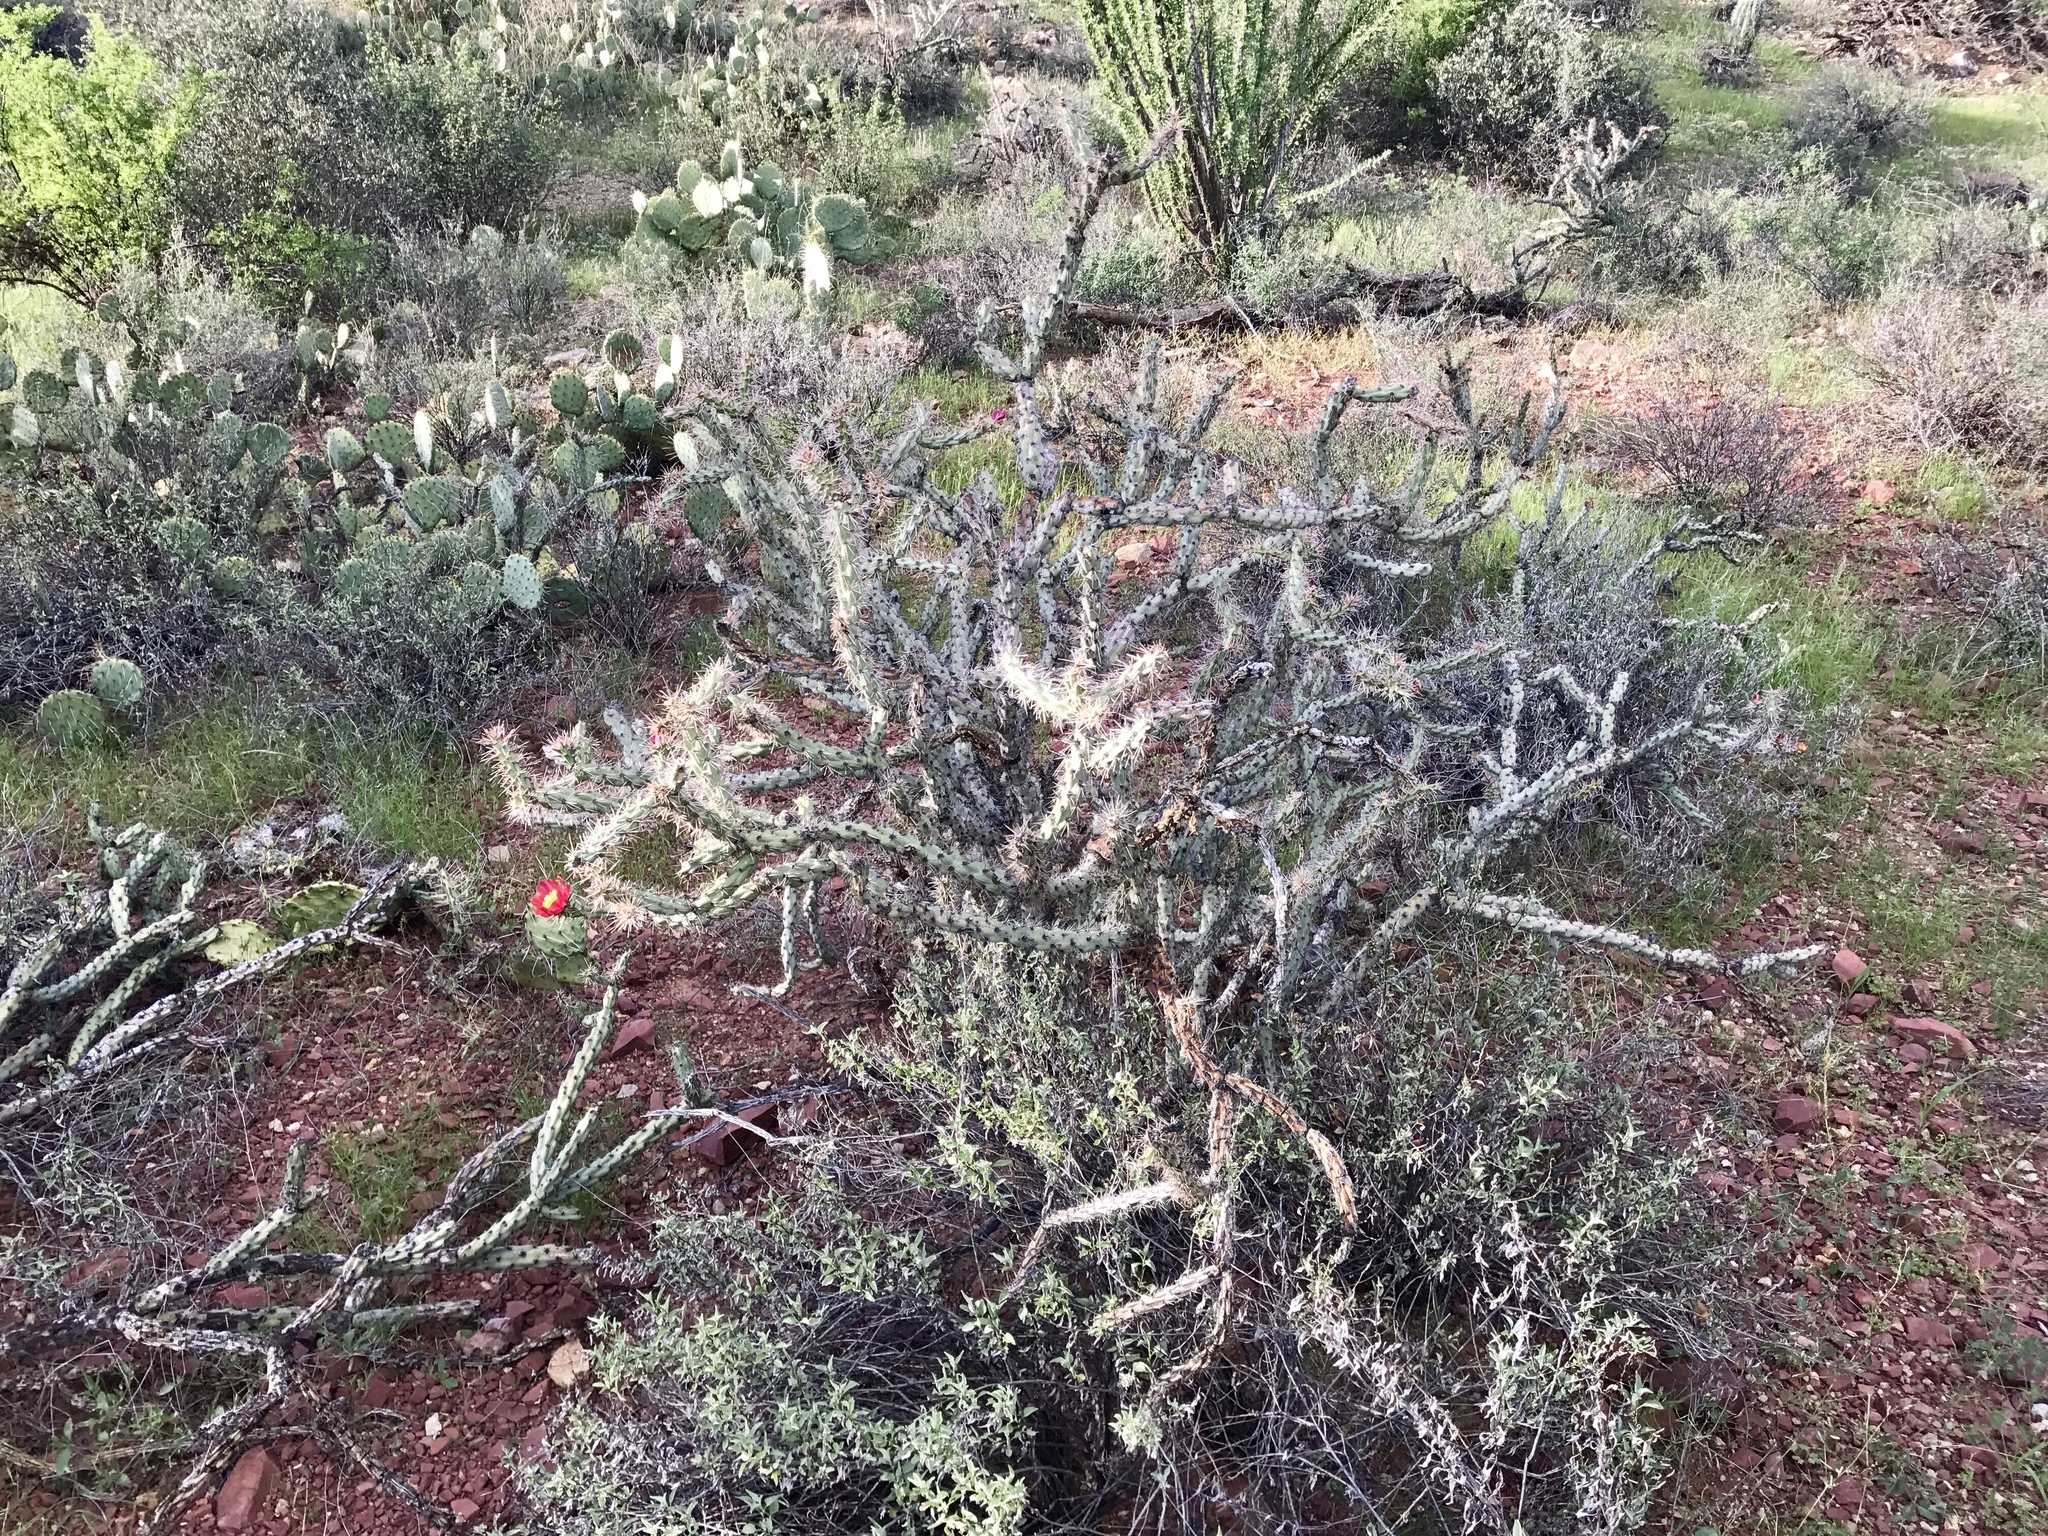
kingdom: Plantae
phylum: Tracheophyta
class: Magnoliopsida
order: Caryophyllales
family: Cactaceae
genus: Cylindropuntia
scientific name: Cylindropuntia acanthocarpa
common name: Buckhorn cholla
